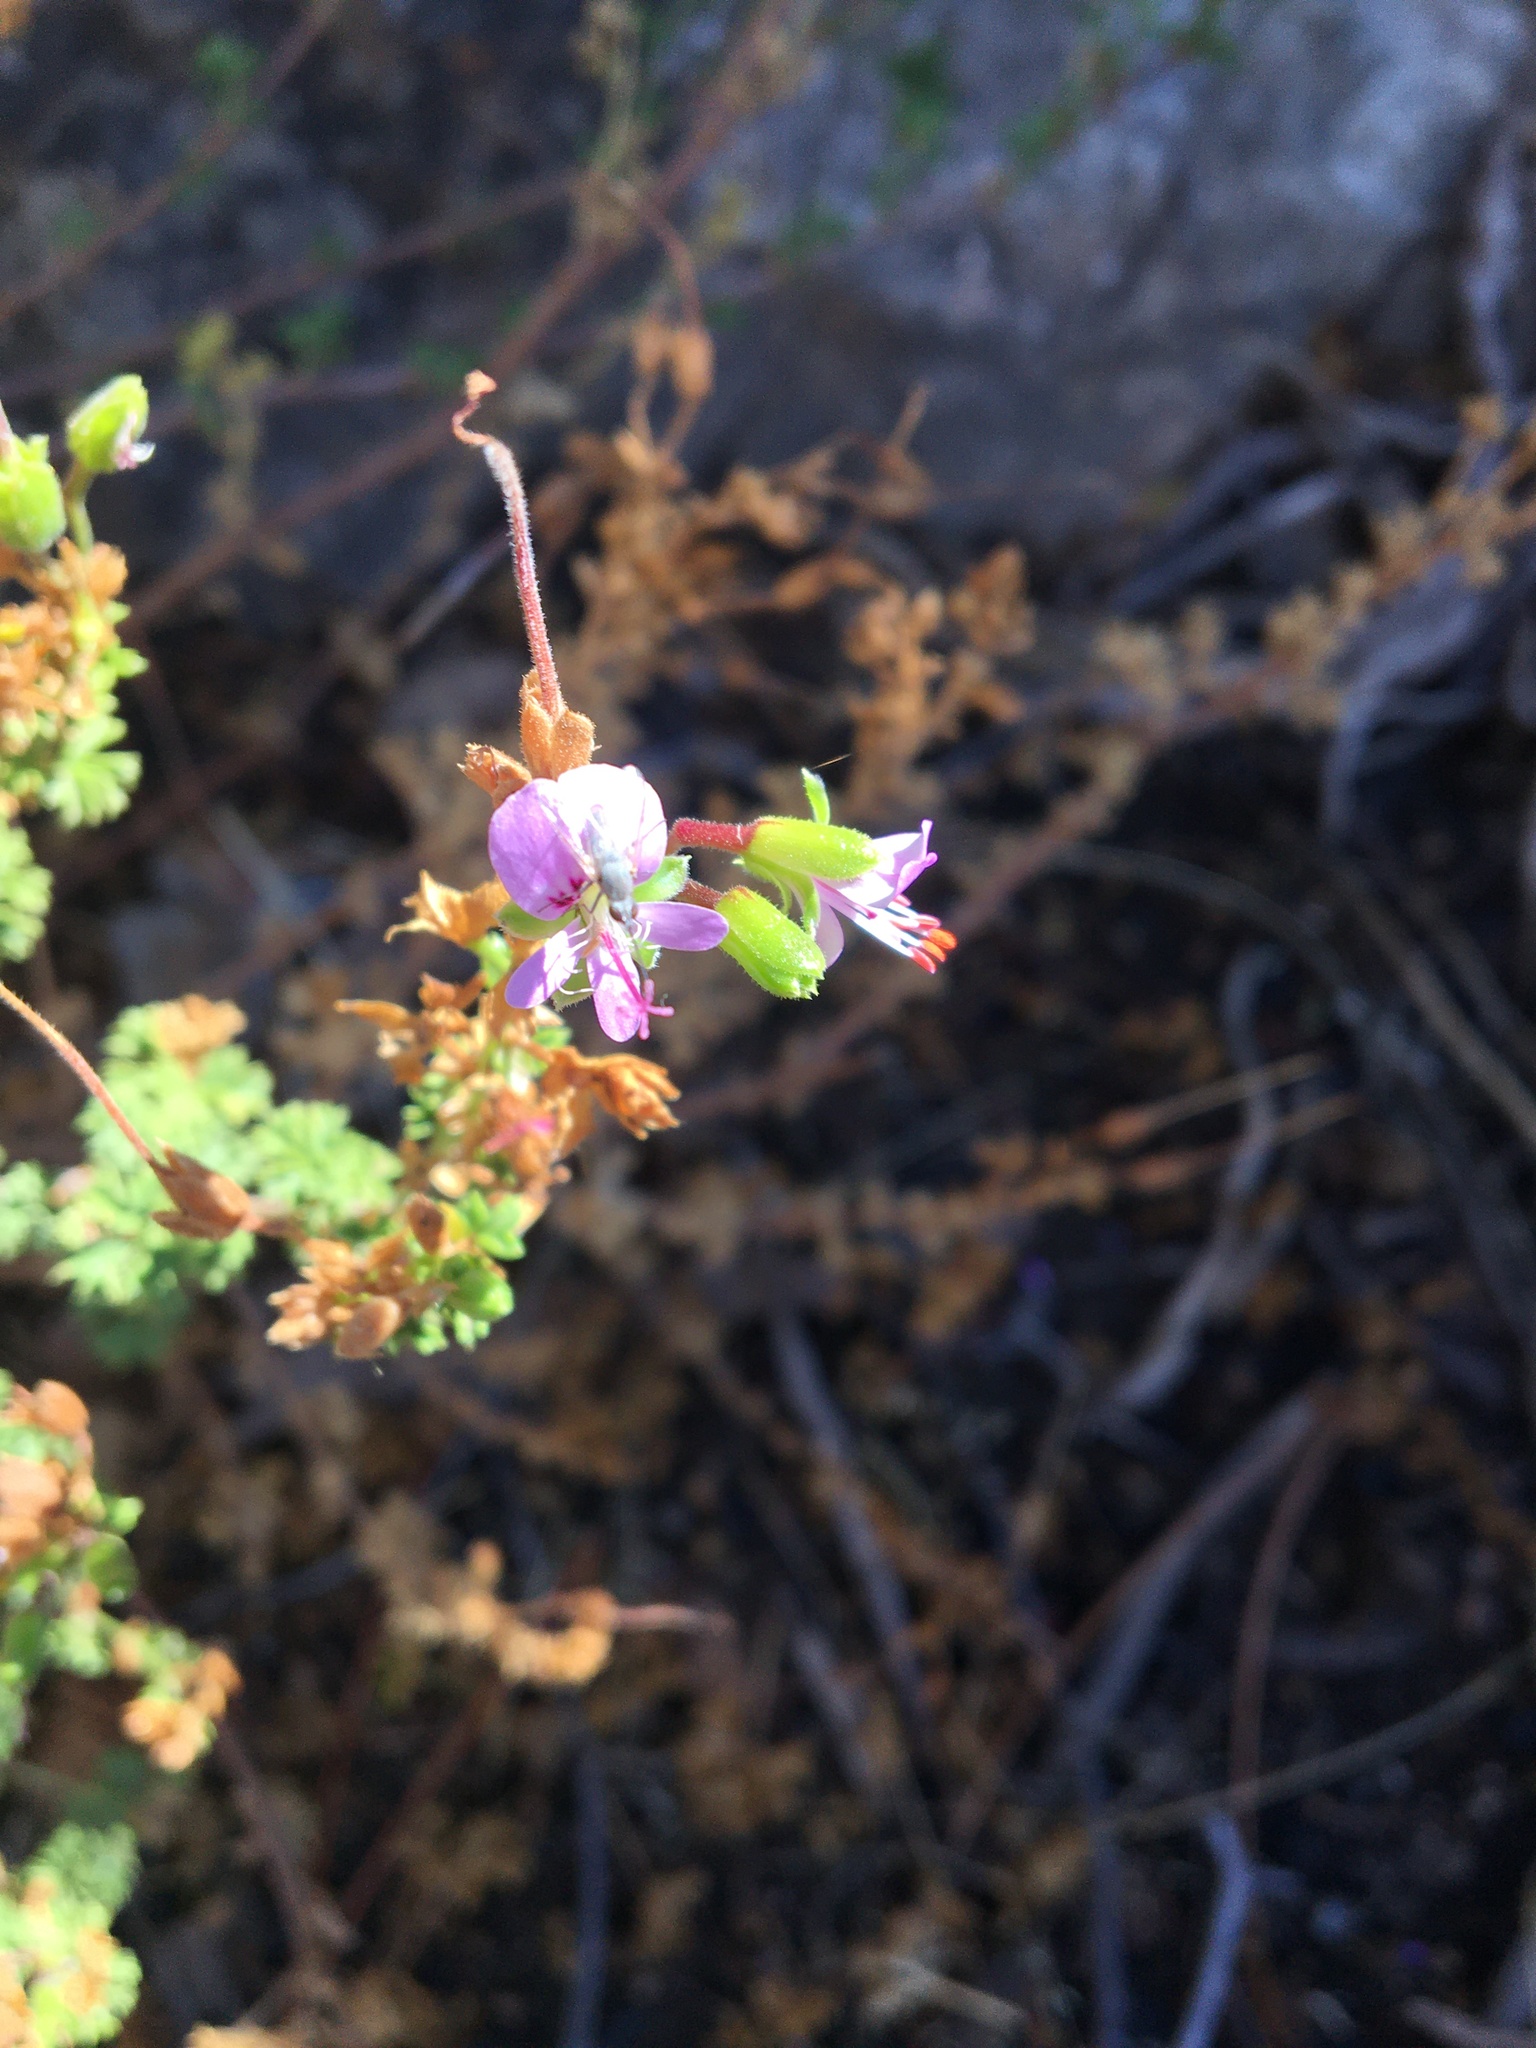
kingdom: Plantae
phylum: Tracheophyta
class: Magnoliopsida
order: Geraniales
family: Geraniaceae
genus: Pelargonium
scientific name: Pelargonium englerianum
